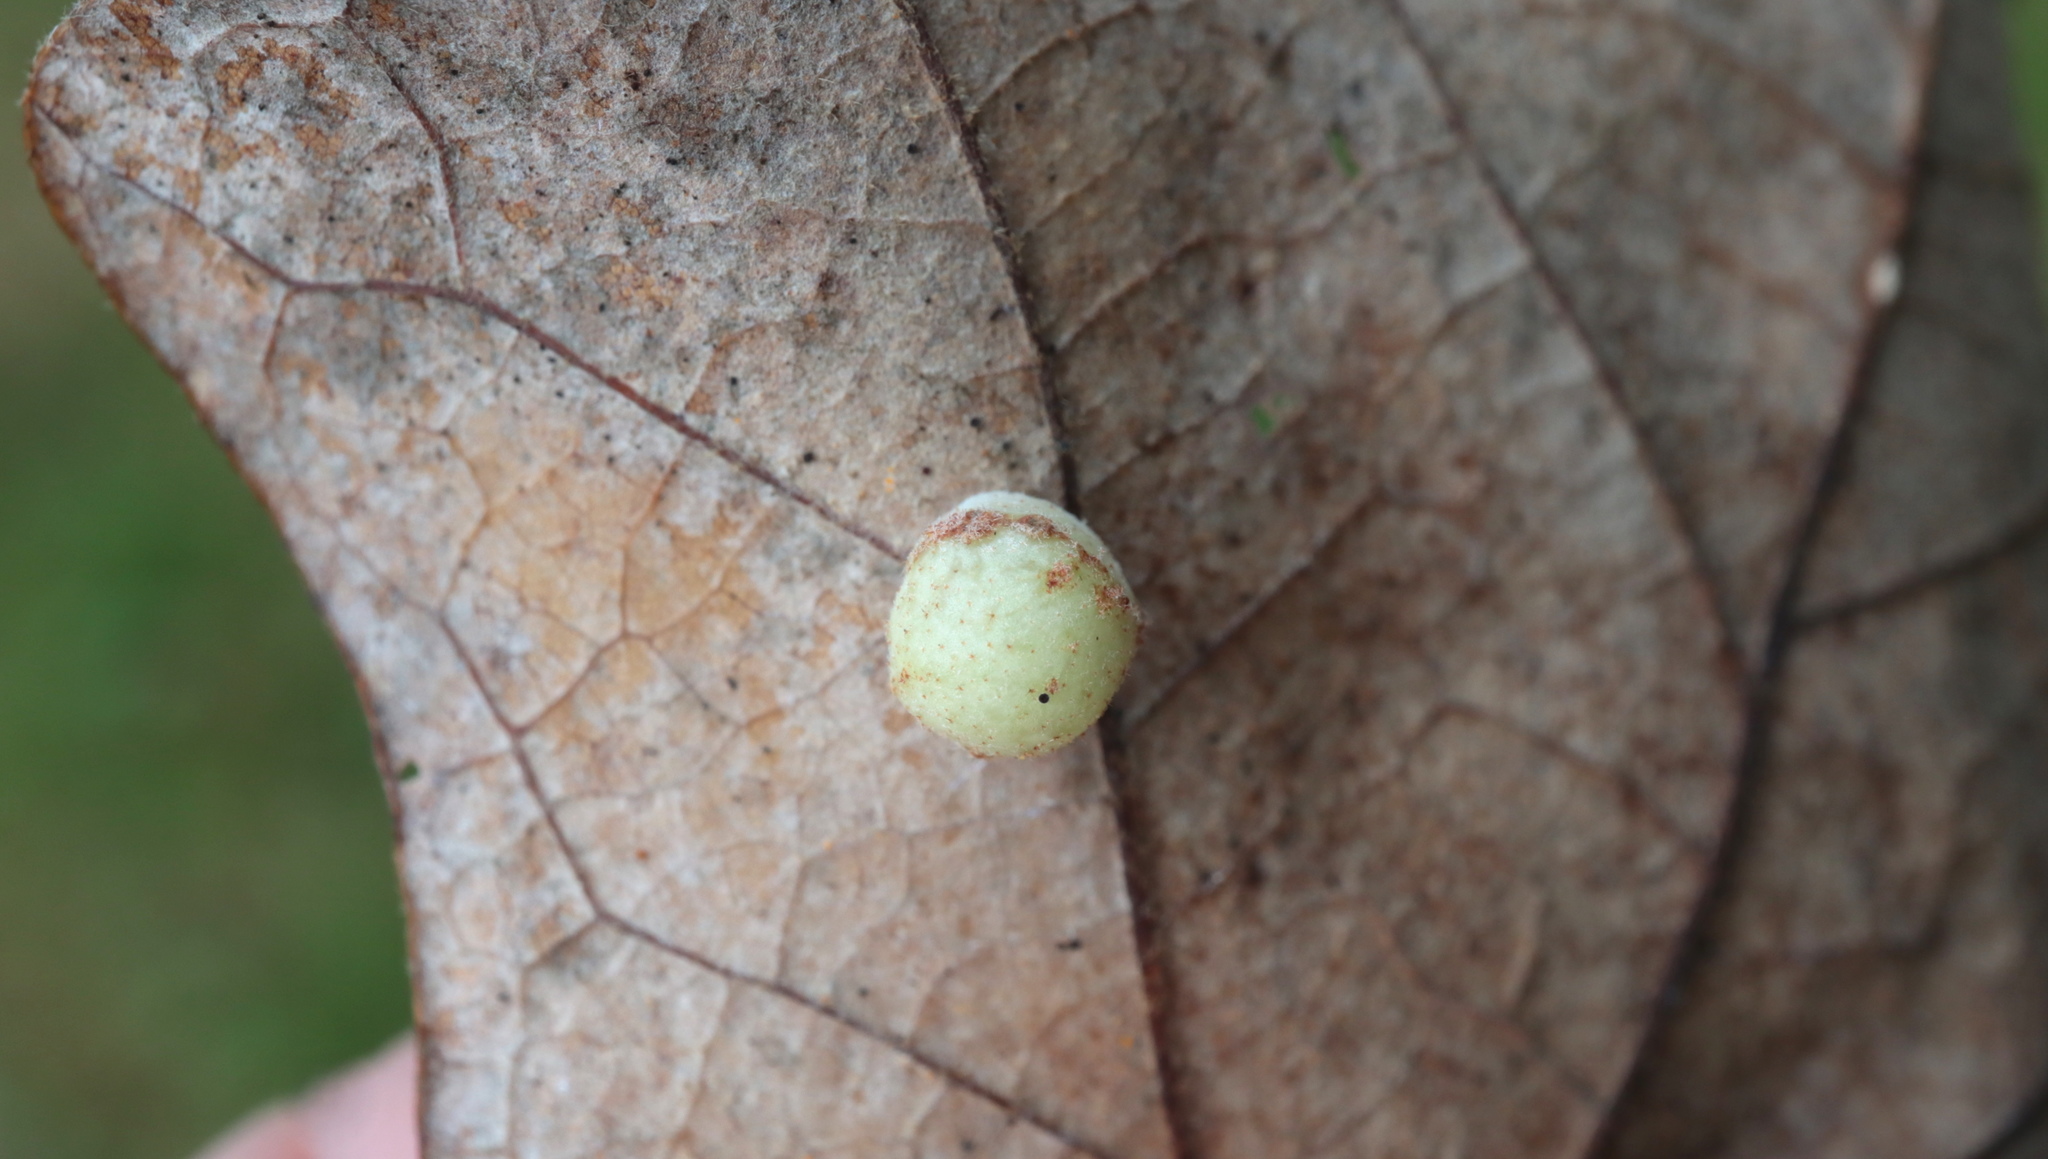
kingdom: Animalia
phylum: Arthropoda
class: Insecta
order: Hymenoptera
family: Cynipidae
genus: Atrusca
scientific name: Atrusca
